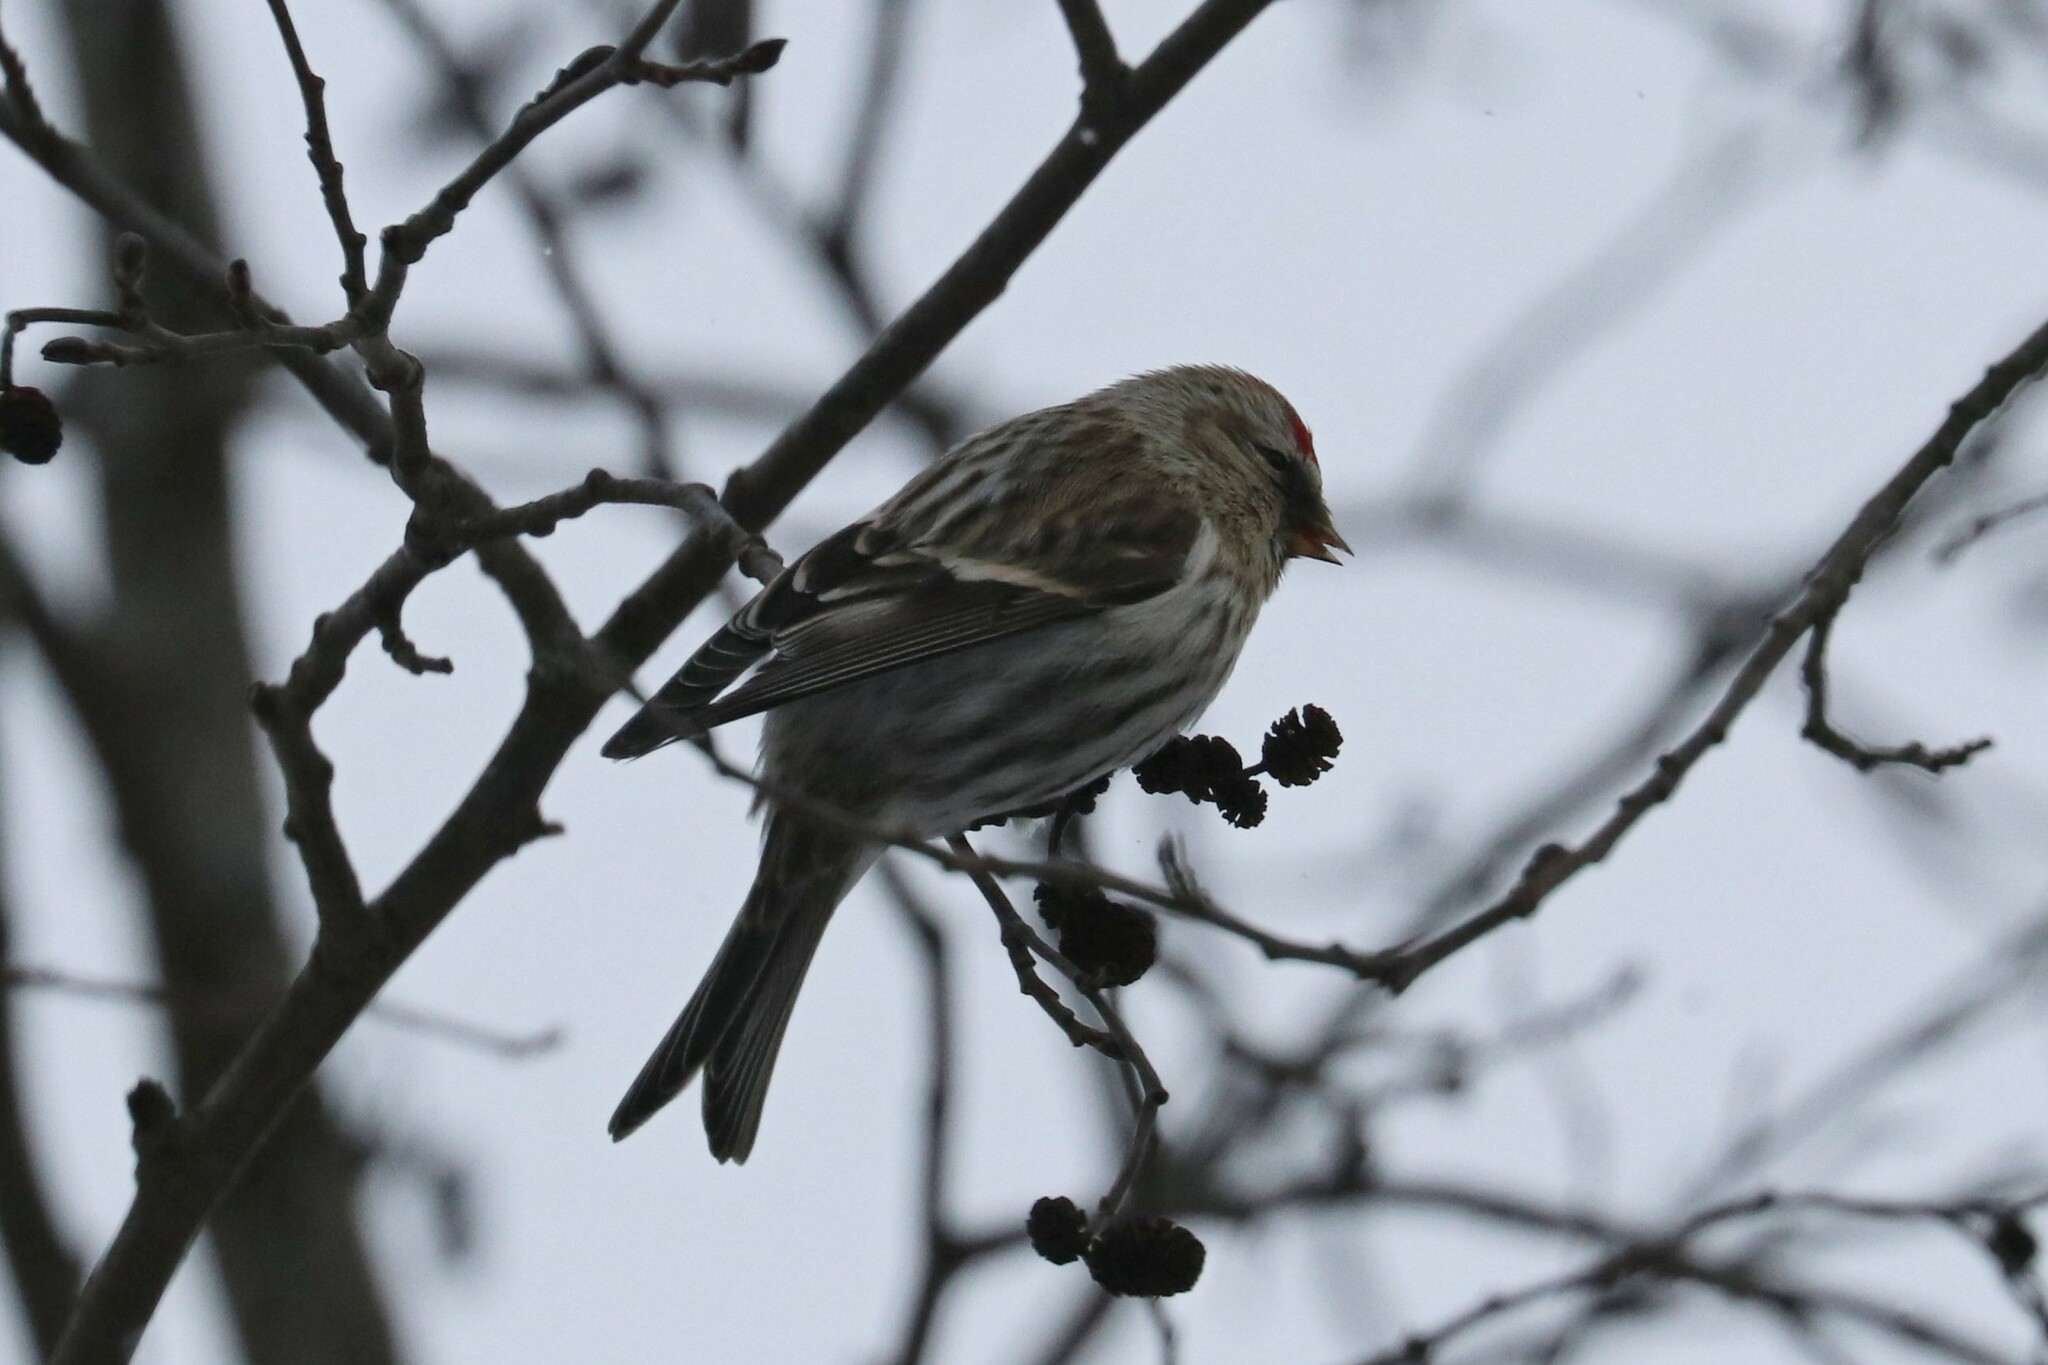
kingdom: Animalia
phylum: Chordata
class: Aves
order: Passeriformes
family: Fringillidae
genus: Acanthis
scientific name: Acanthis flammea
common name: Common redpoll
